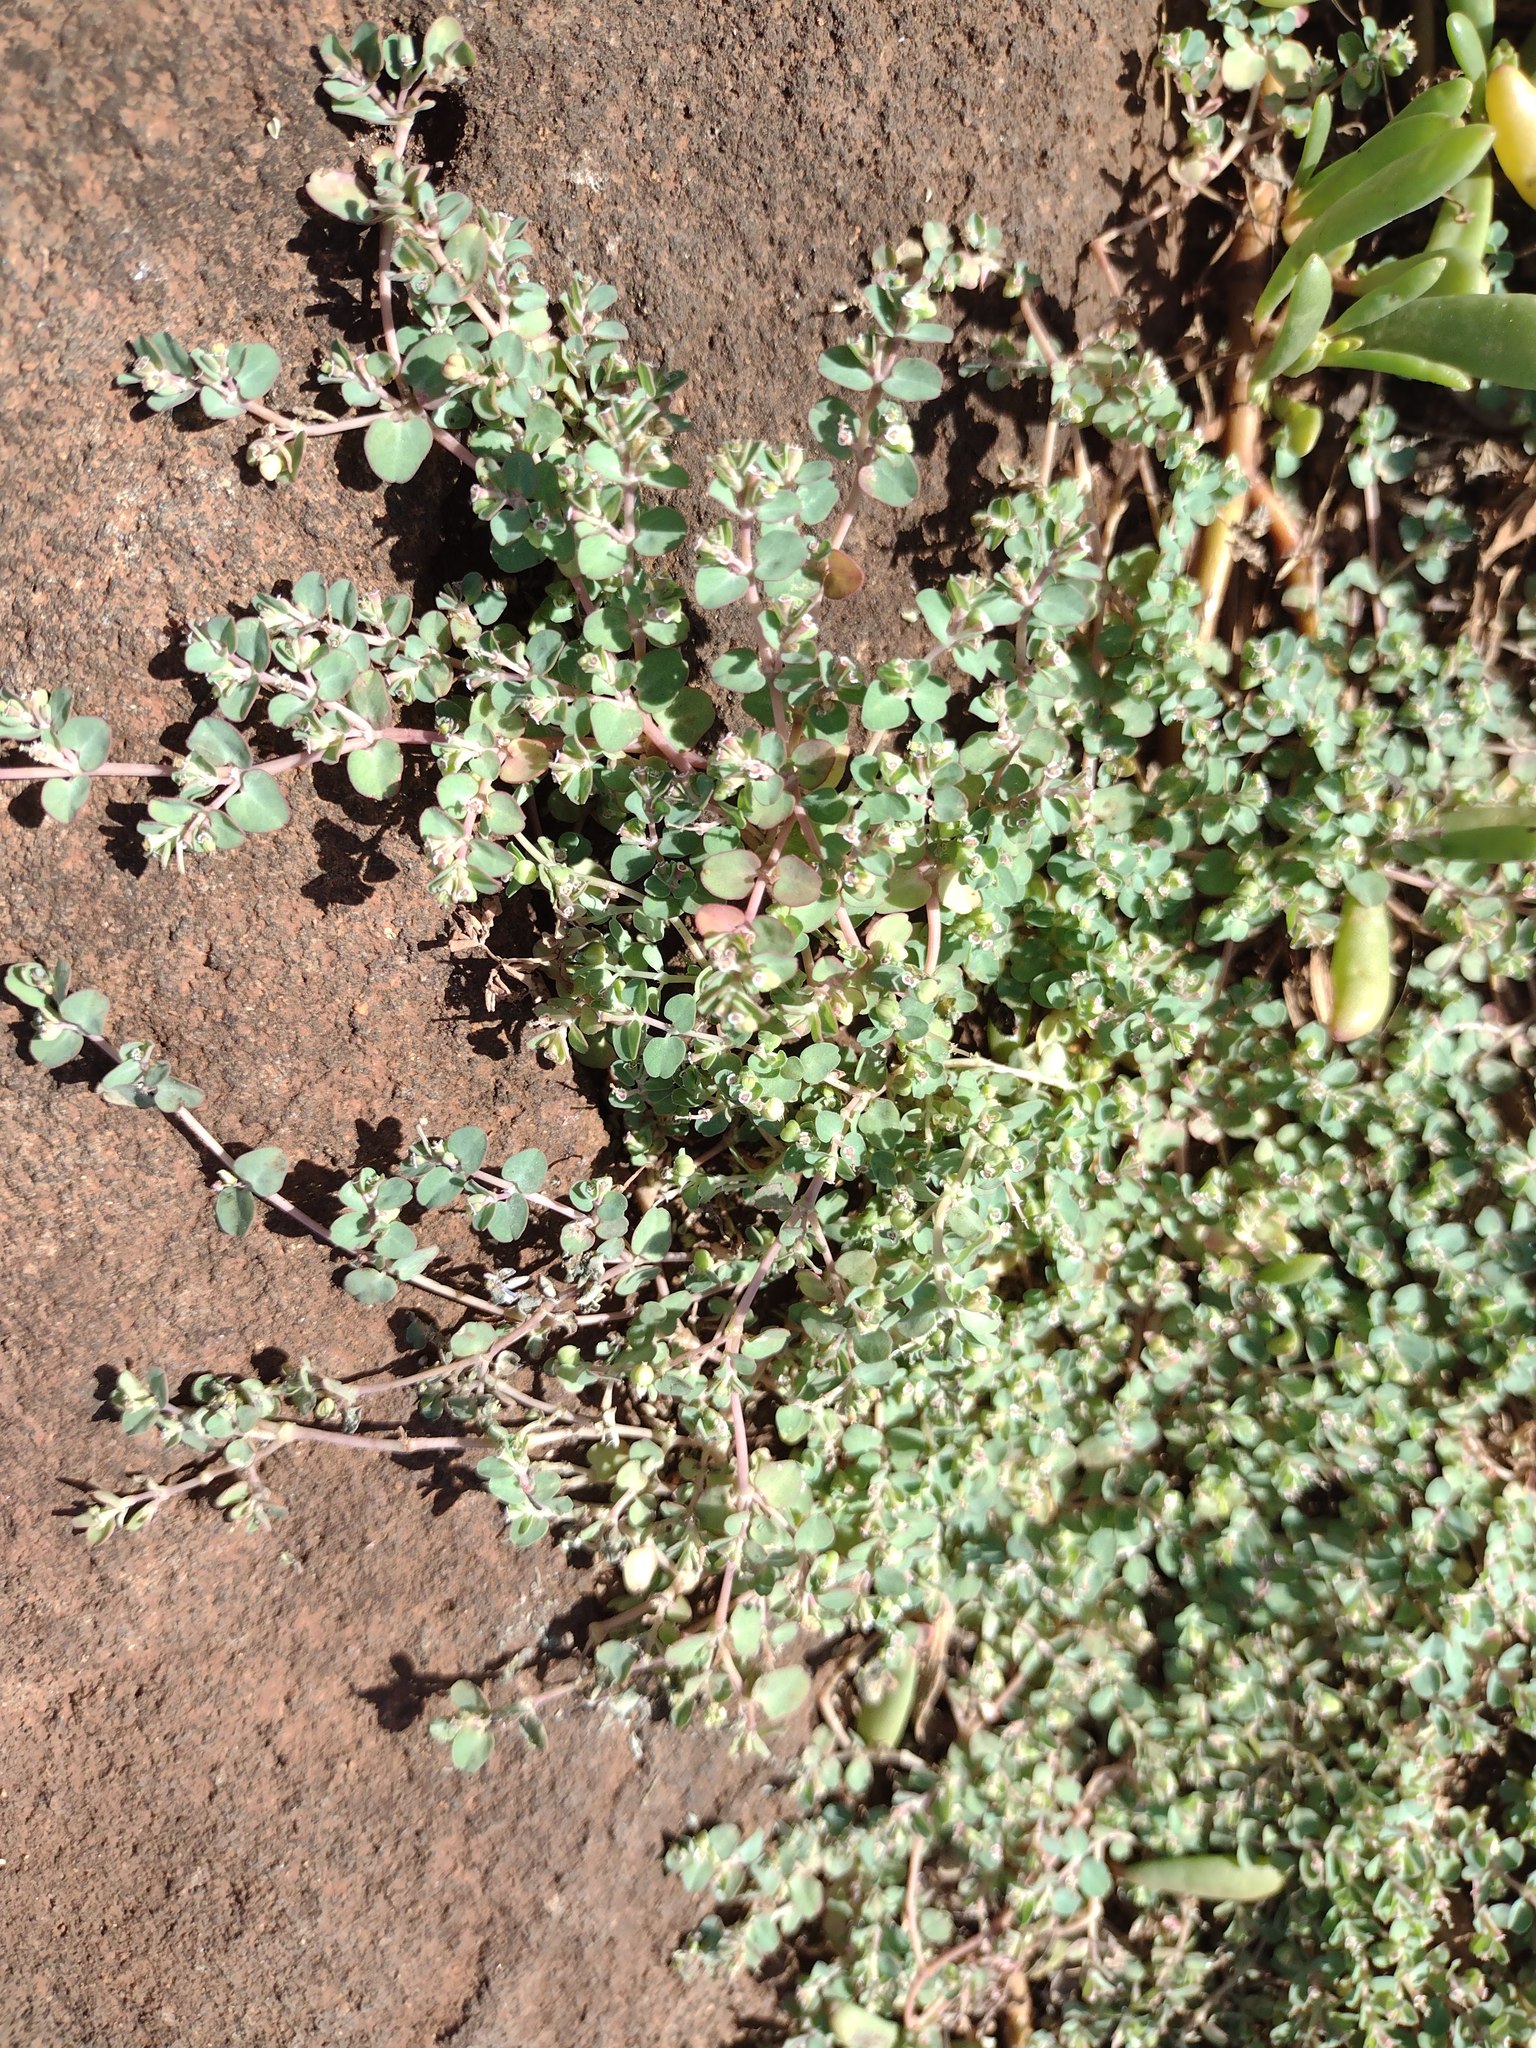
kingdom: Plantae
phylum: Tracheophyta
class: Magnoliopsida
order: Malpighiales
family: Euphorbiaceae
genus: Euphorbia
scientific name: Euphorbia serpens
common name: Matted sandmat
